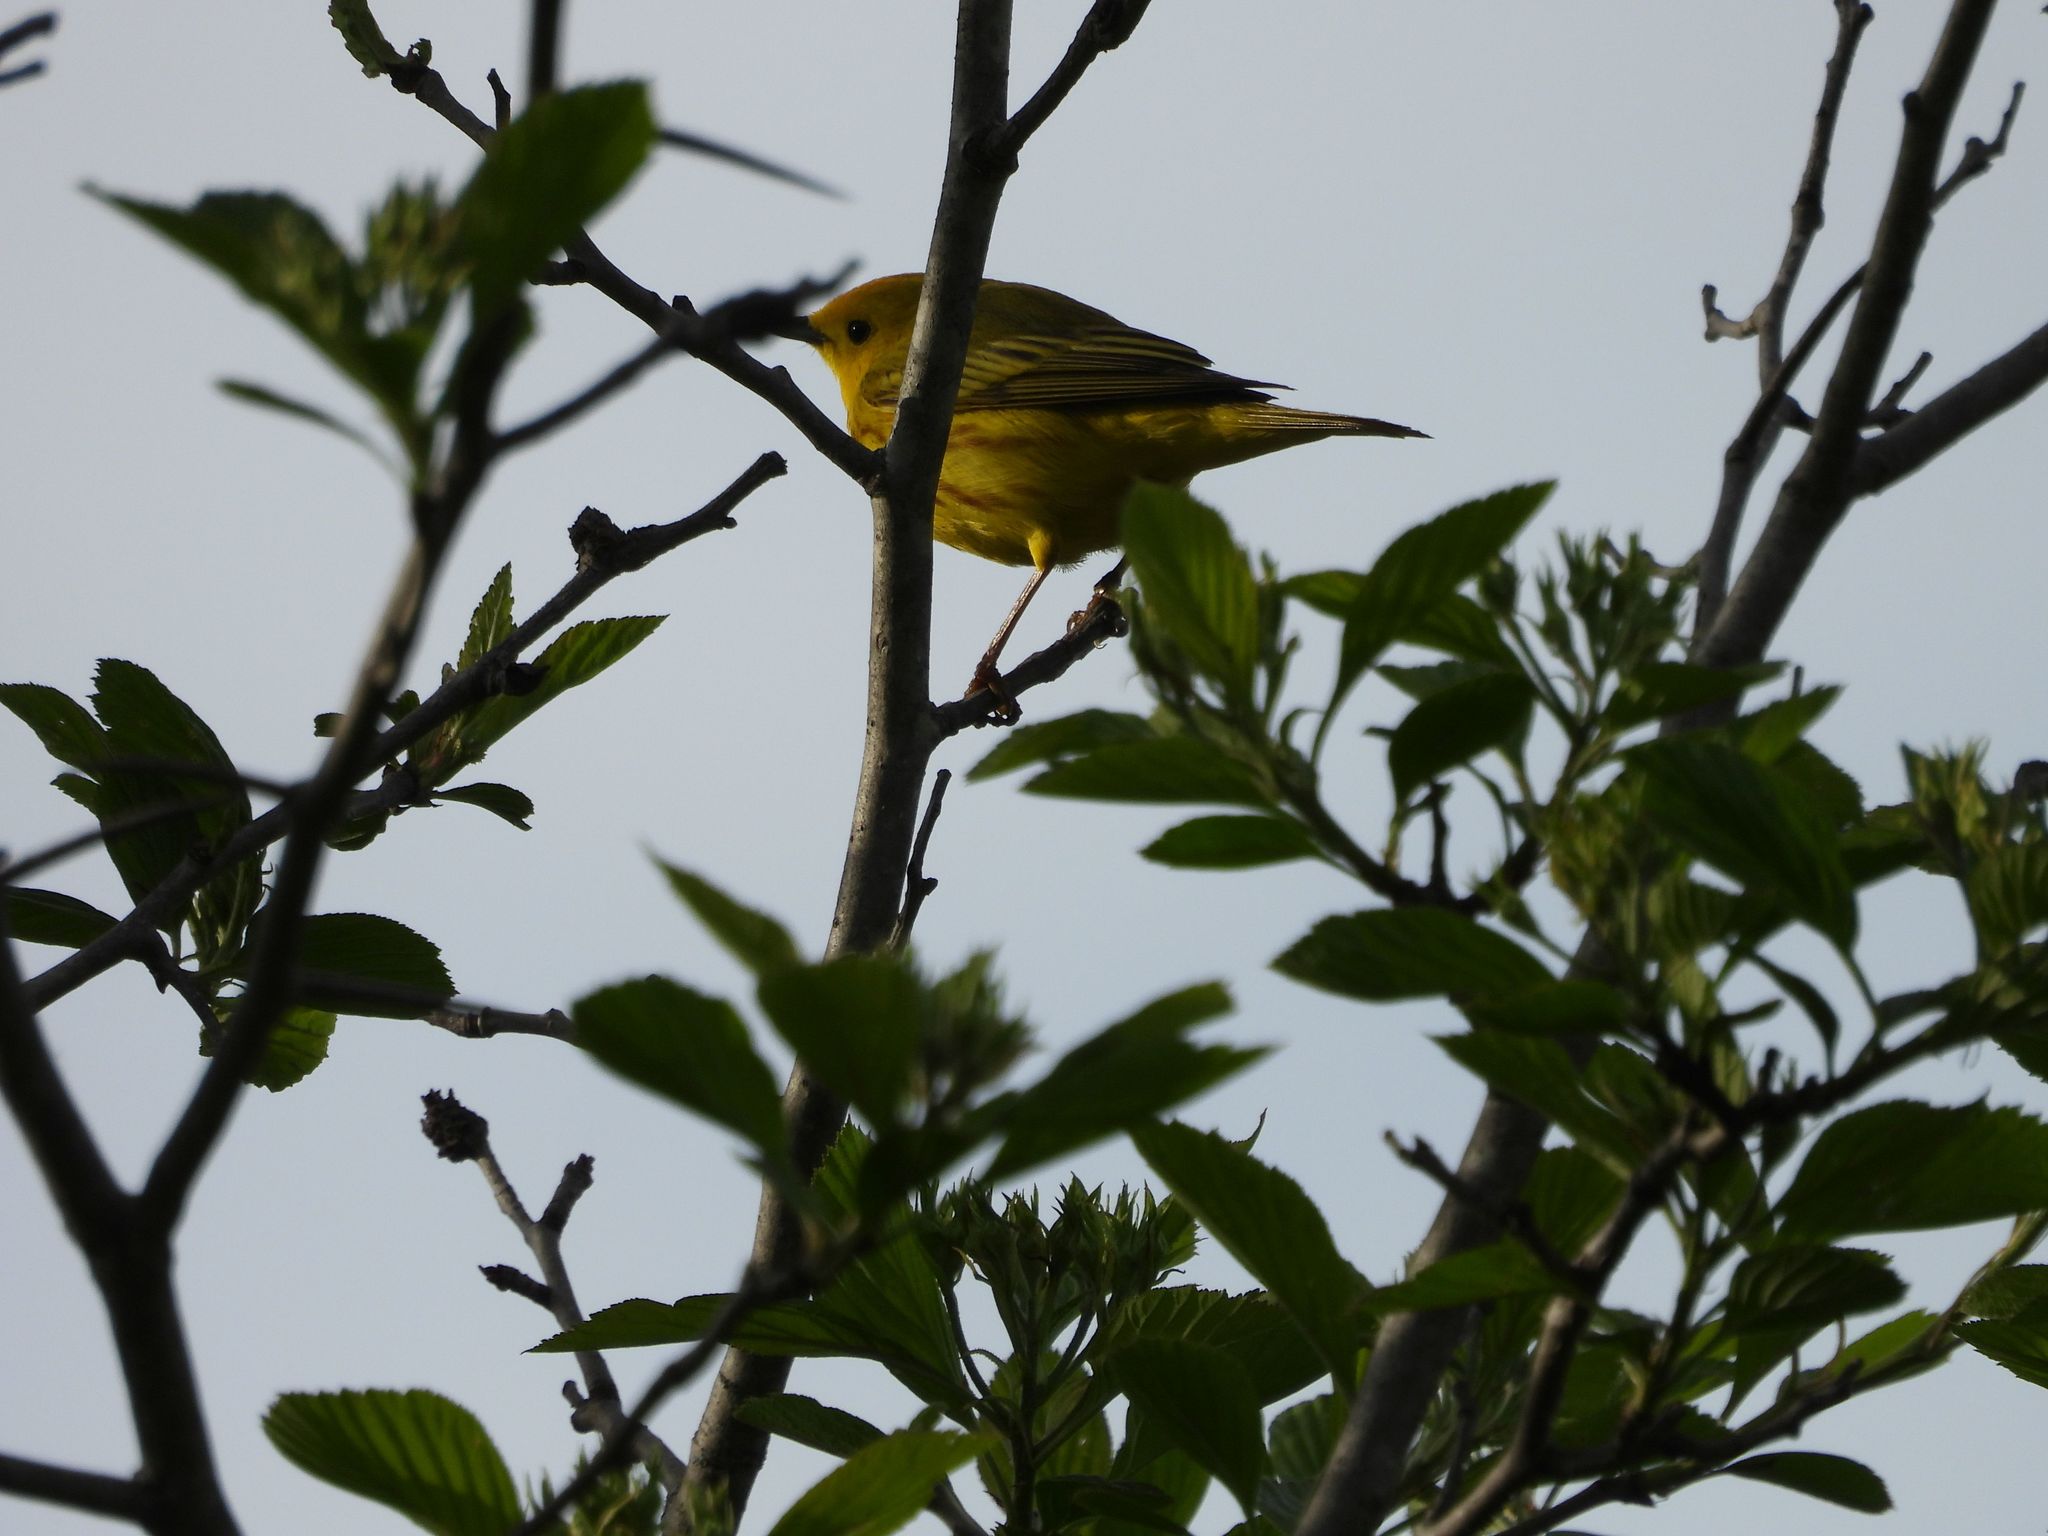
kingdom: Animalia
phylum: Chordata
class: Aves
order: Passeriformes
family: Parulidae
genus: Setophaga
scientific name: Setophaga petechia
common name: Yellow warbler
